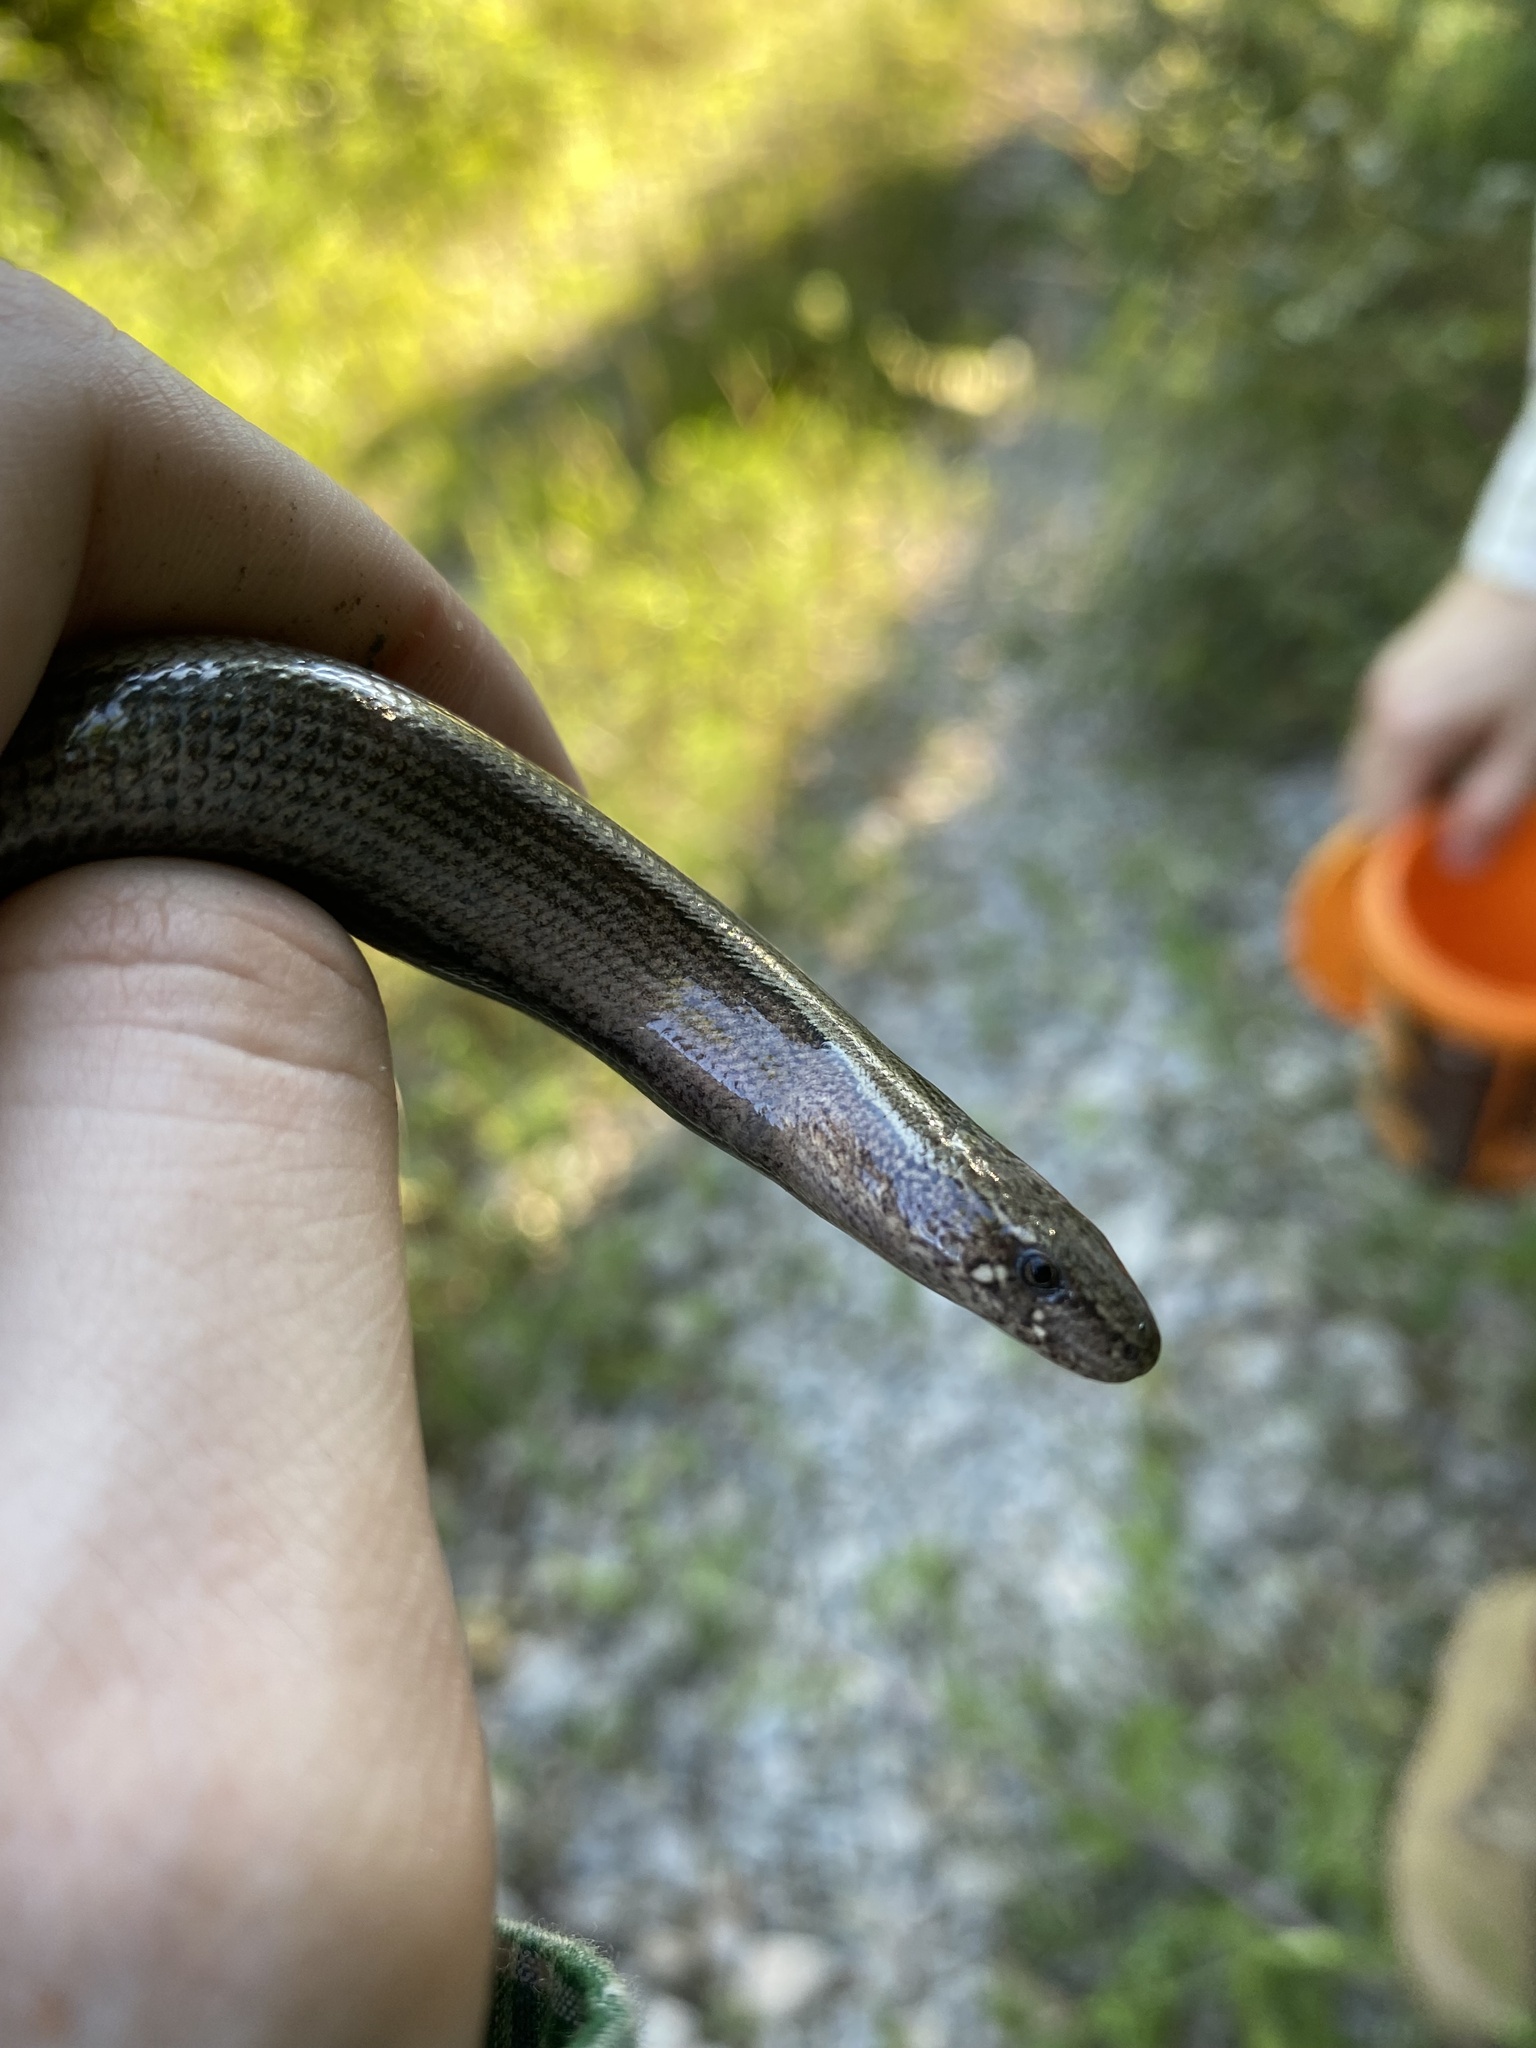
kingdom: Animalia
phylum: Chordata
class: Squamata
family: Anguidae
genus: Anguis
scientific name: Anguis colchica
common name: Slow worm
